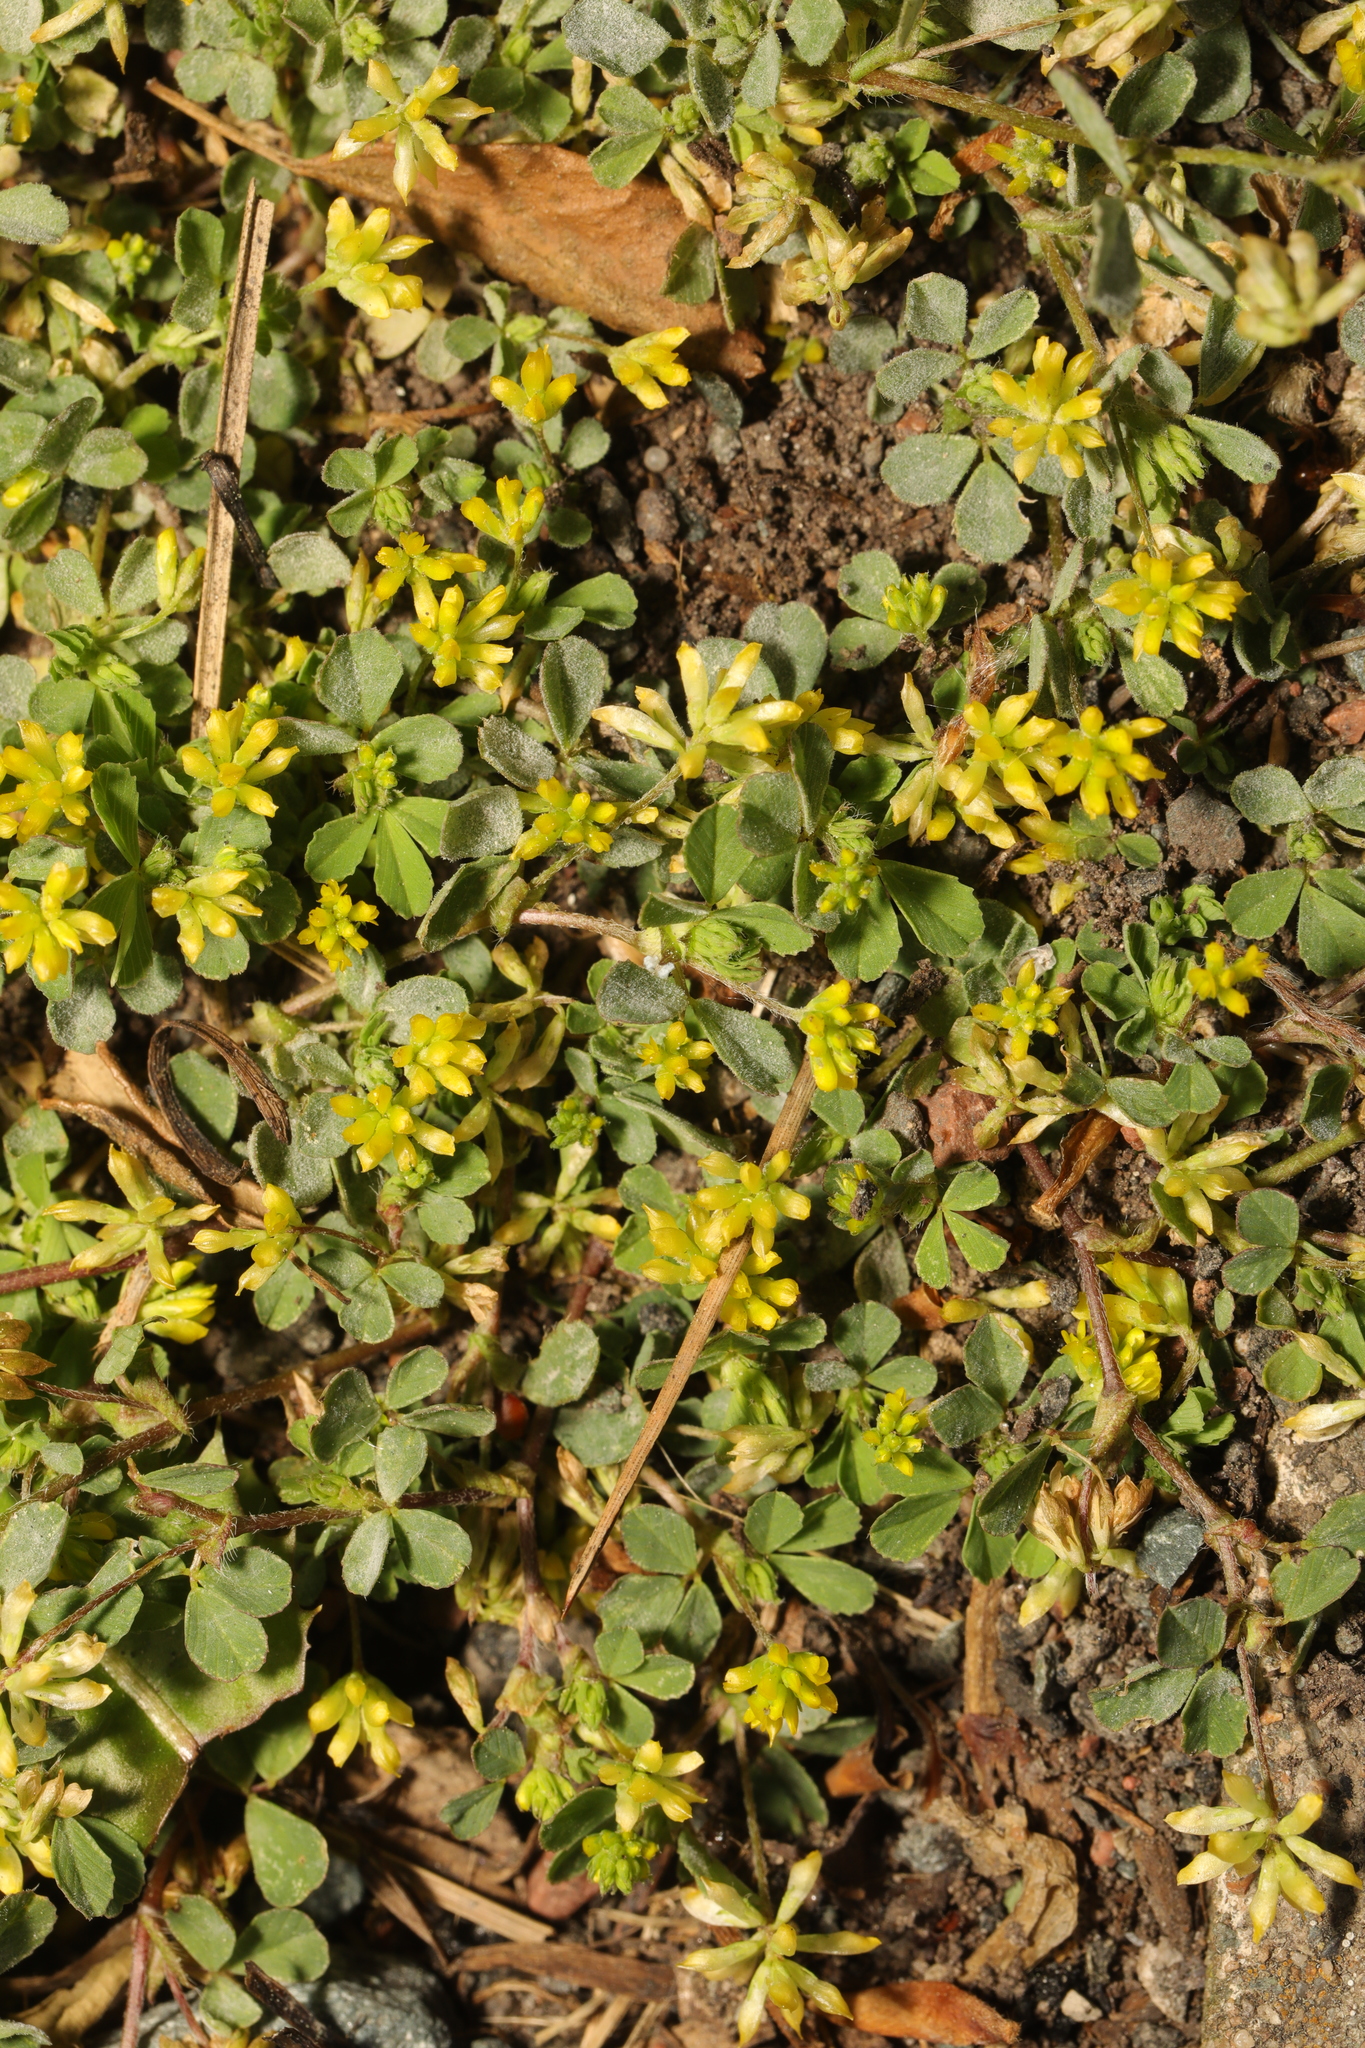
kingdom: Plantae
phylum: Tracheophyta
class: Magnoliopsida
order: Fabales
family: Fabaceae
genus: Trifolium
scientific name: Trifolium dubium
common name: Suckling clover
